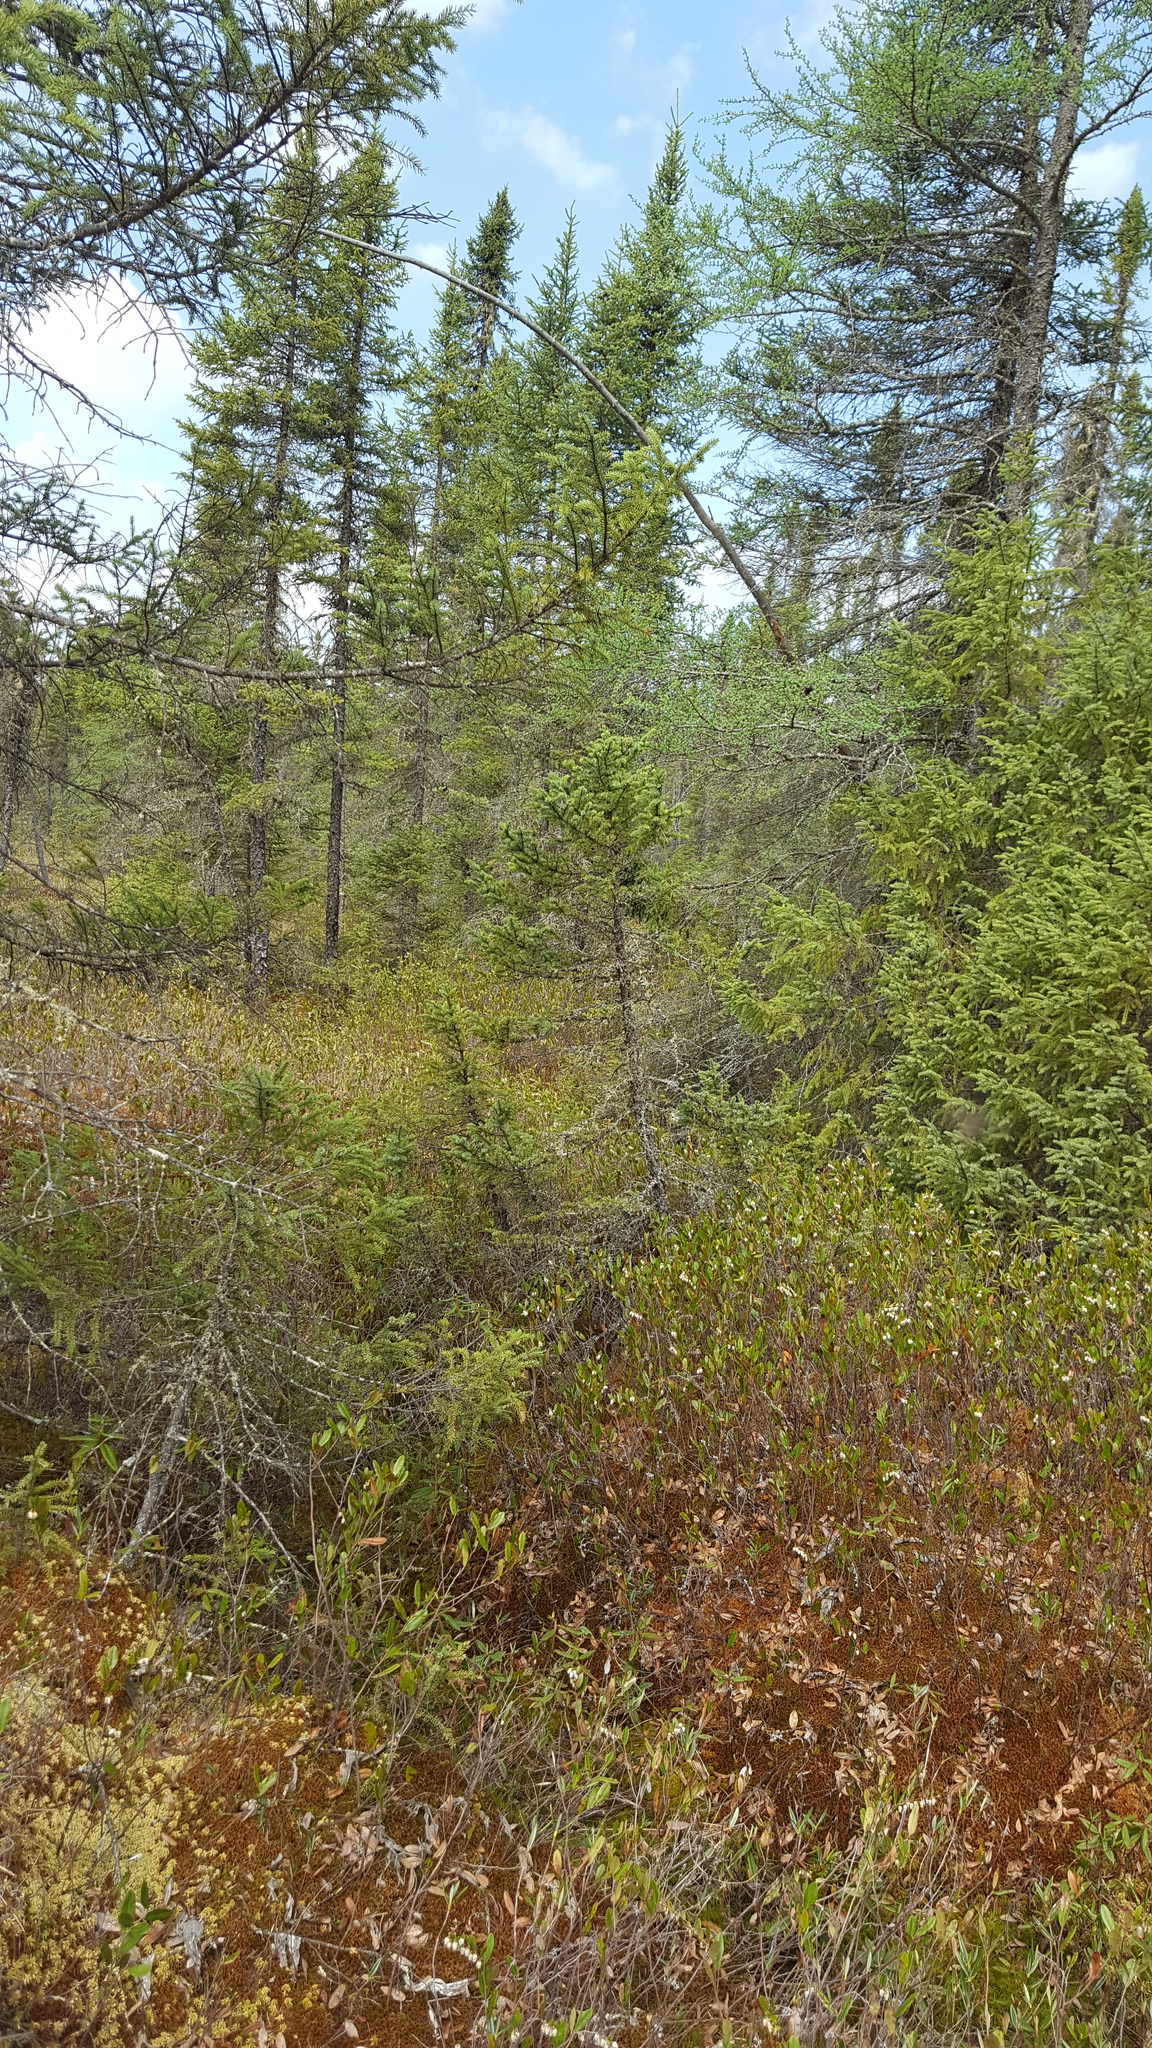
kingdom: Plantae
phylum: Tracheophyta
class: Pinopsida
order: Pinales
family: Pinaceae
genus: Picea
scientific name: Picea mariana
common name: Black spruce
